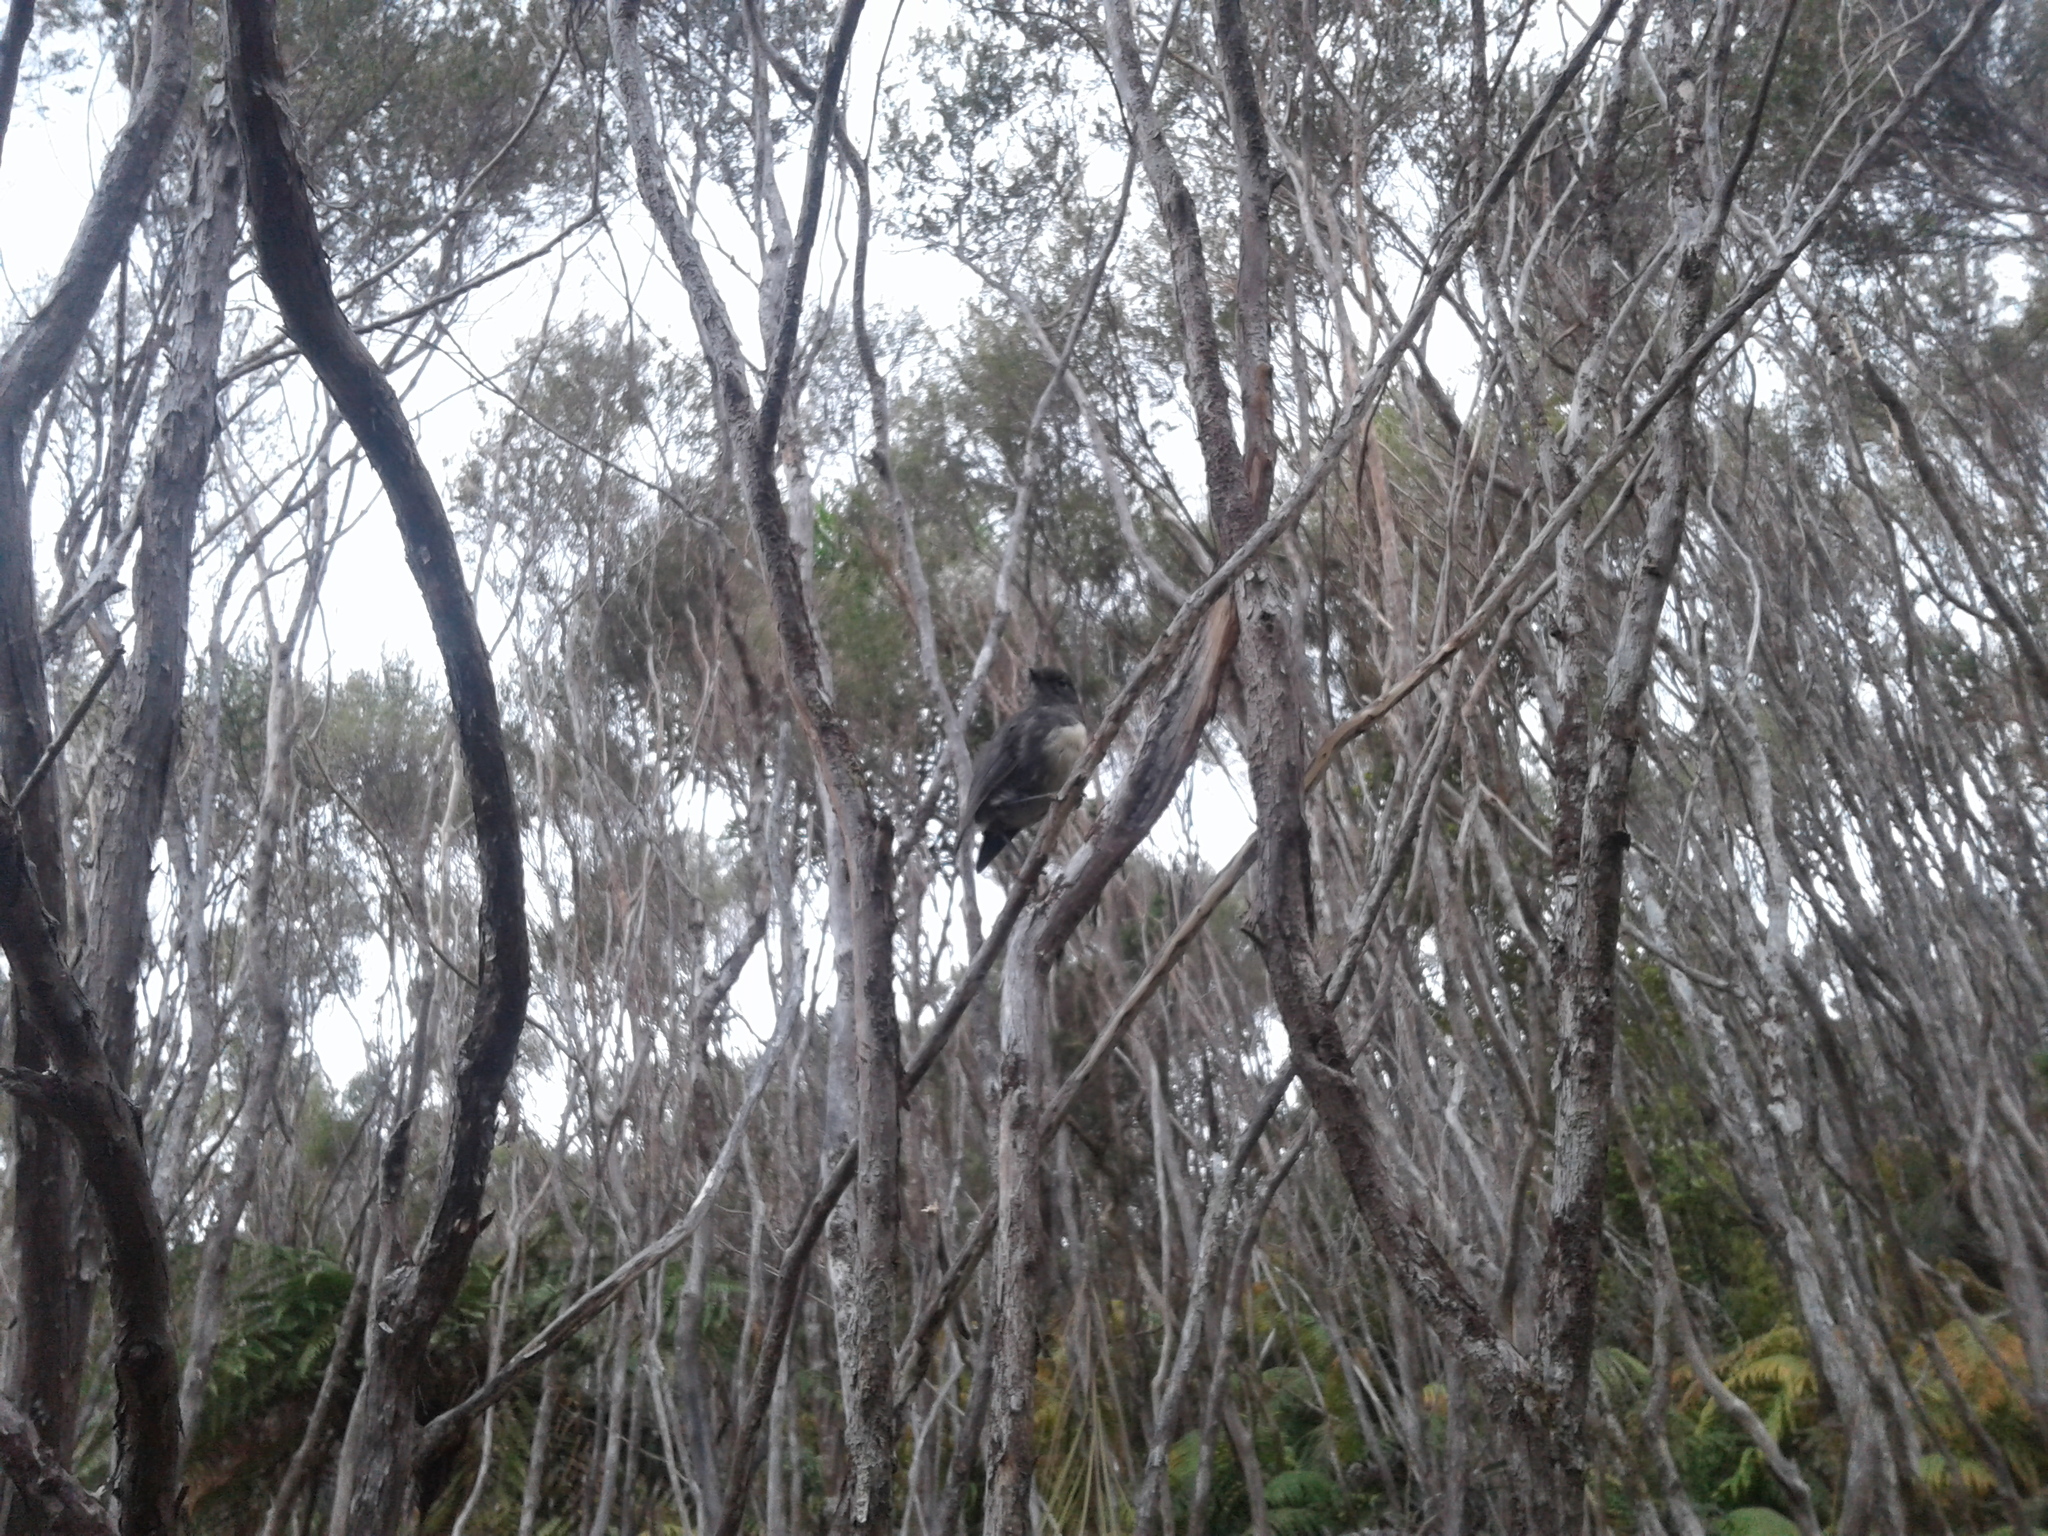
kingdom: Animalia
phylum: Chordata
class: Aves
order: Passeriformes
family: Petroicidae
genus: Petroica
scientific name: Petroica australis
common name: New zealand robin
